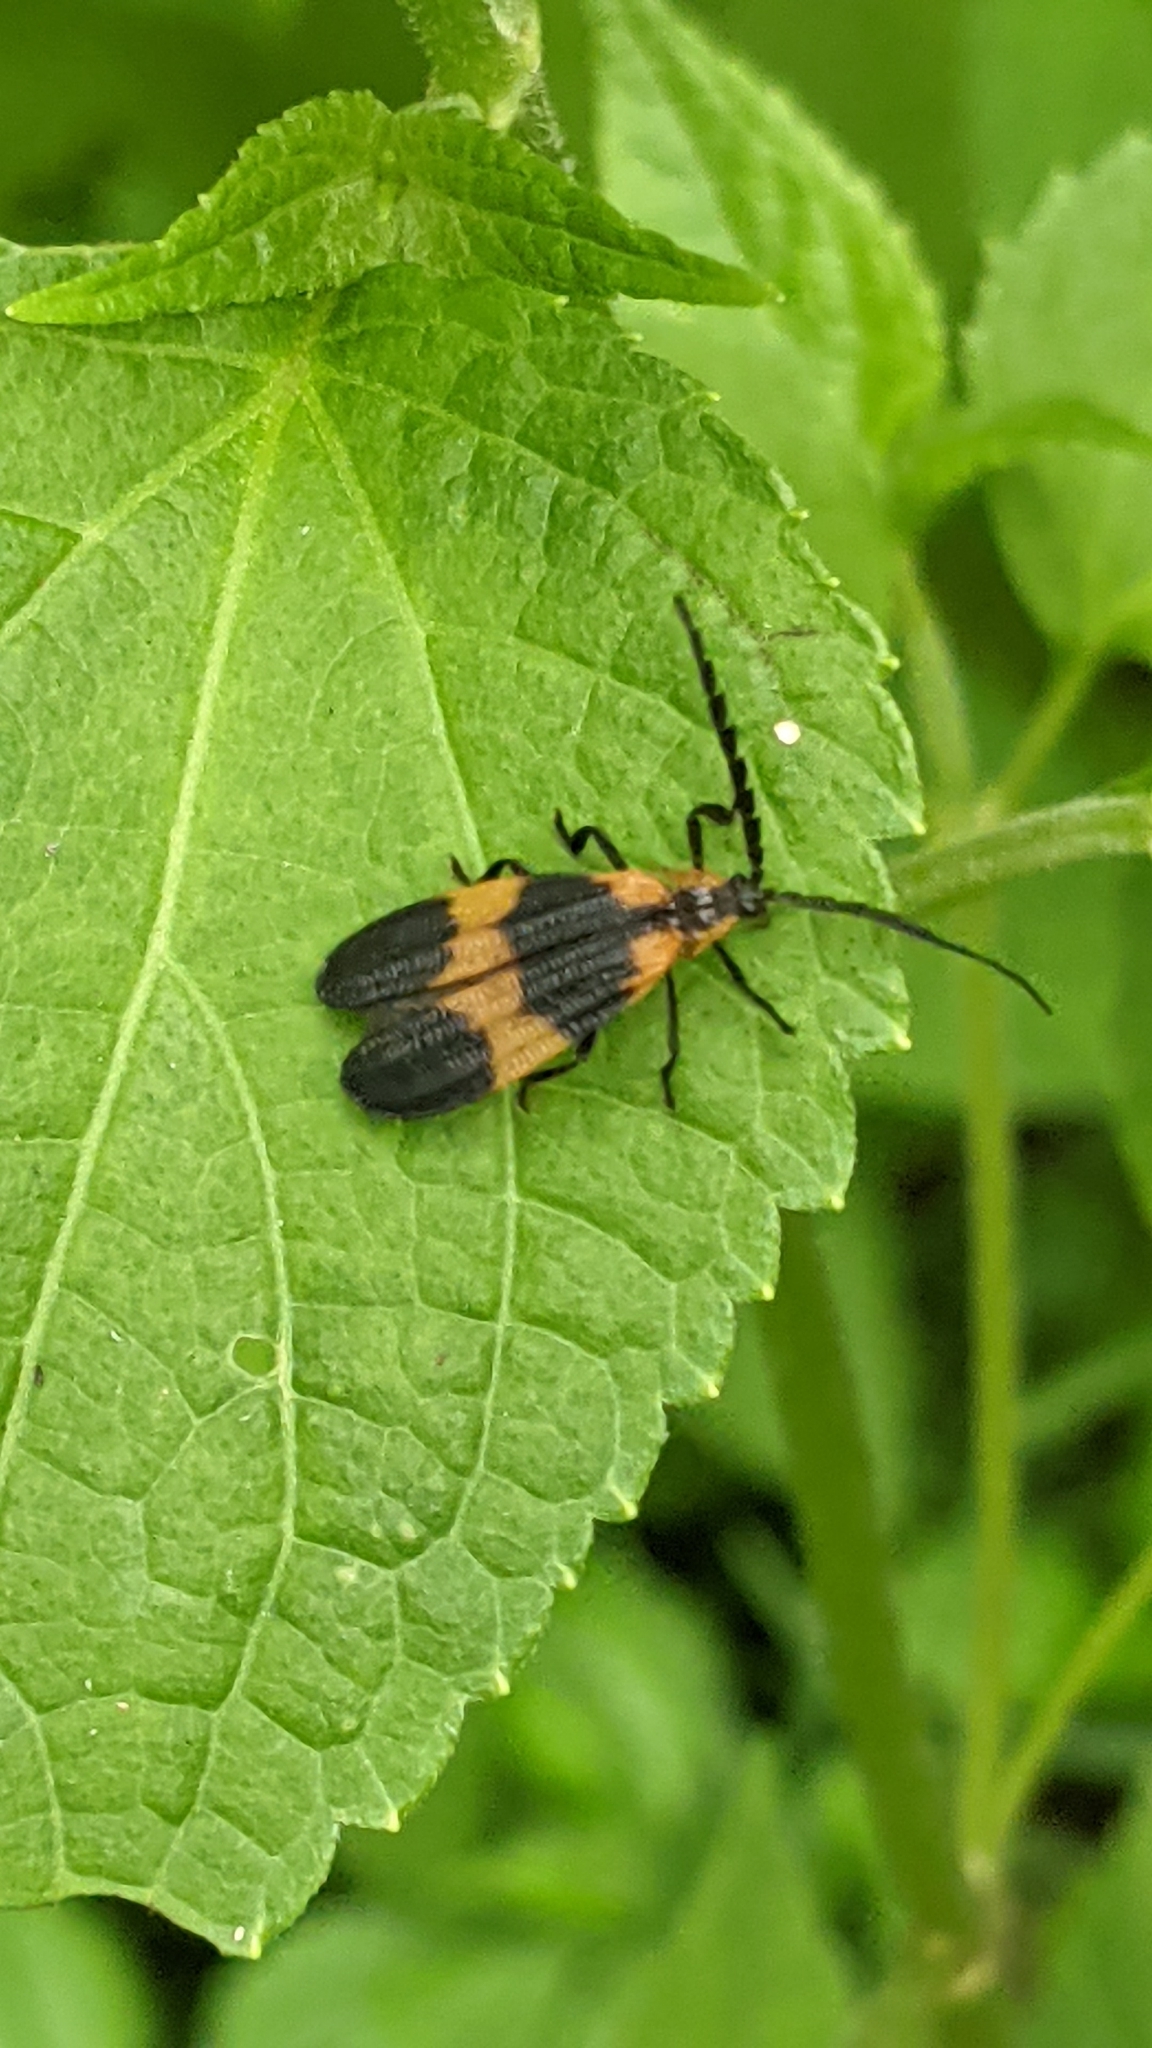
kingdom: Animalia
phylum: Arthropoda
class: Insecta
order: Coleoptera
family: Lycidae
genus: Calopteron
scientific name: Calopteron reticulatum
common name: Banded net-winged beetle
